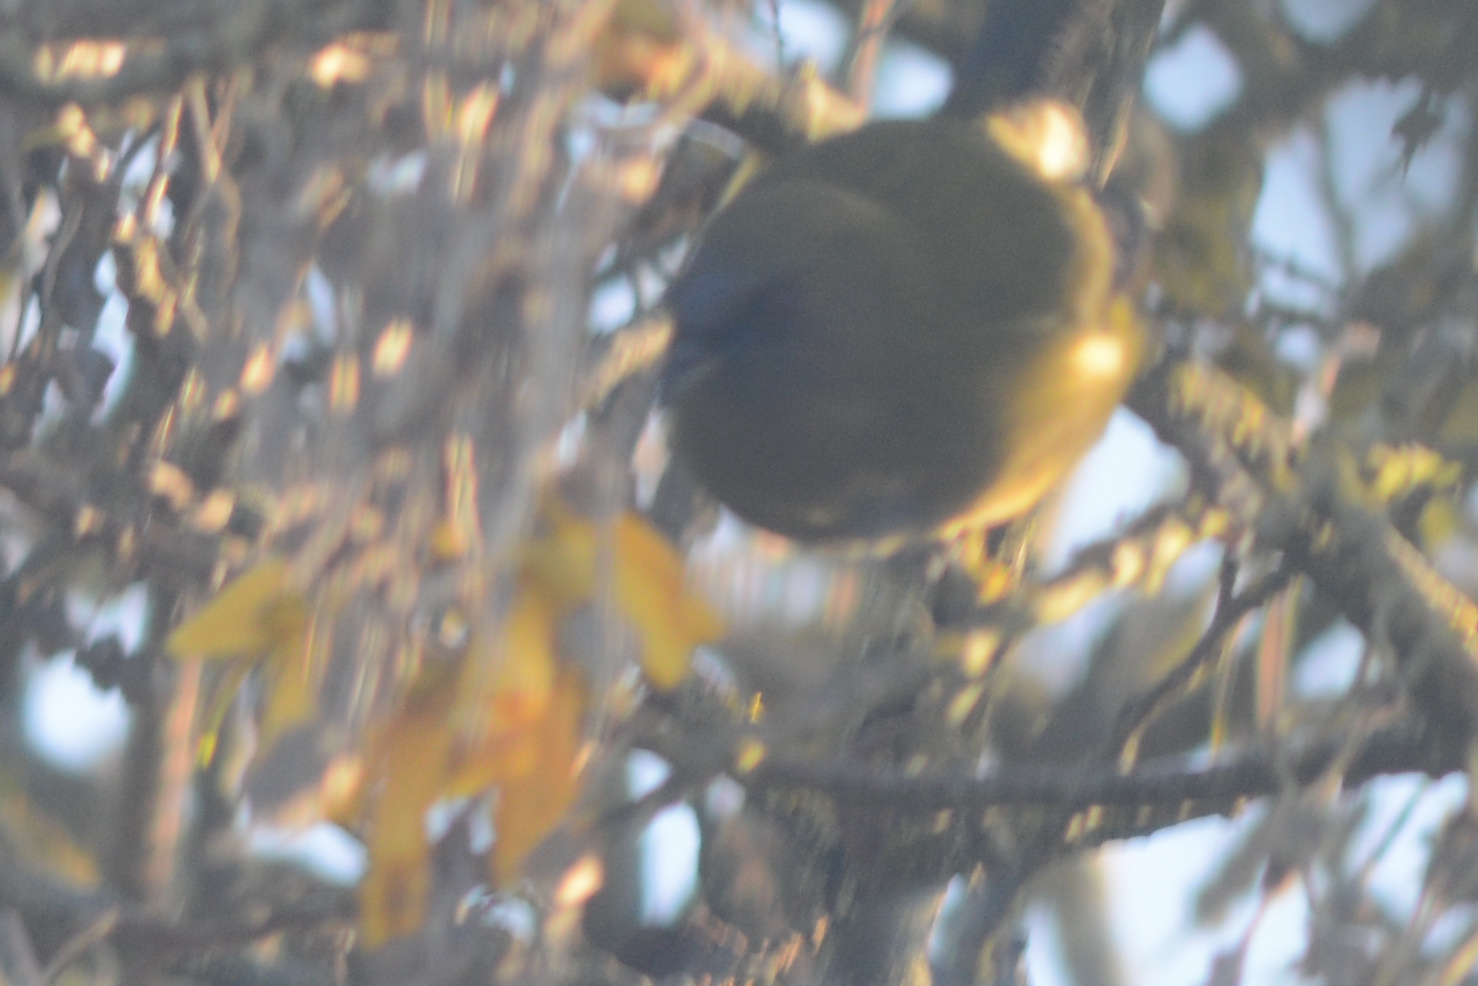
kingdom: Animalia
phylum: Chordata
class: Aves
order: Passeriformes
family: Meliphagidae
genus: Anthornis
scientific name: Anthornis melanura
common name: New zealand bellbird
